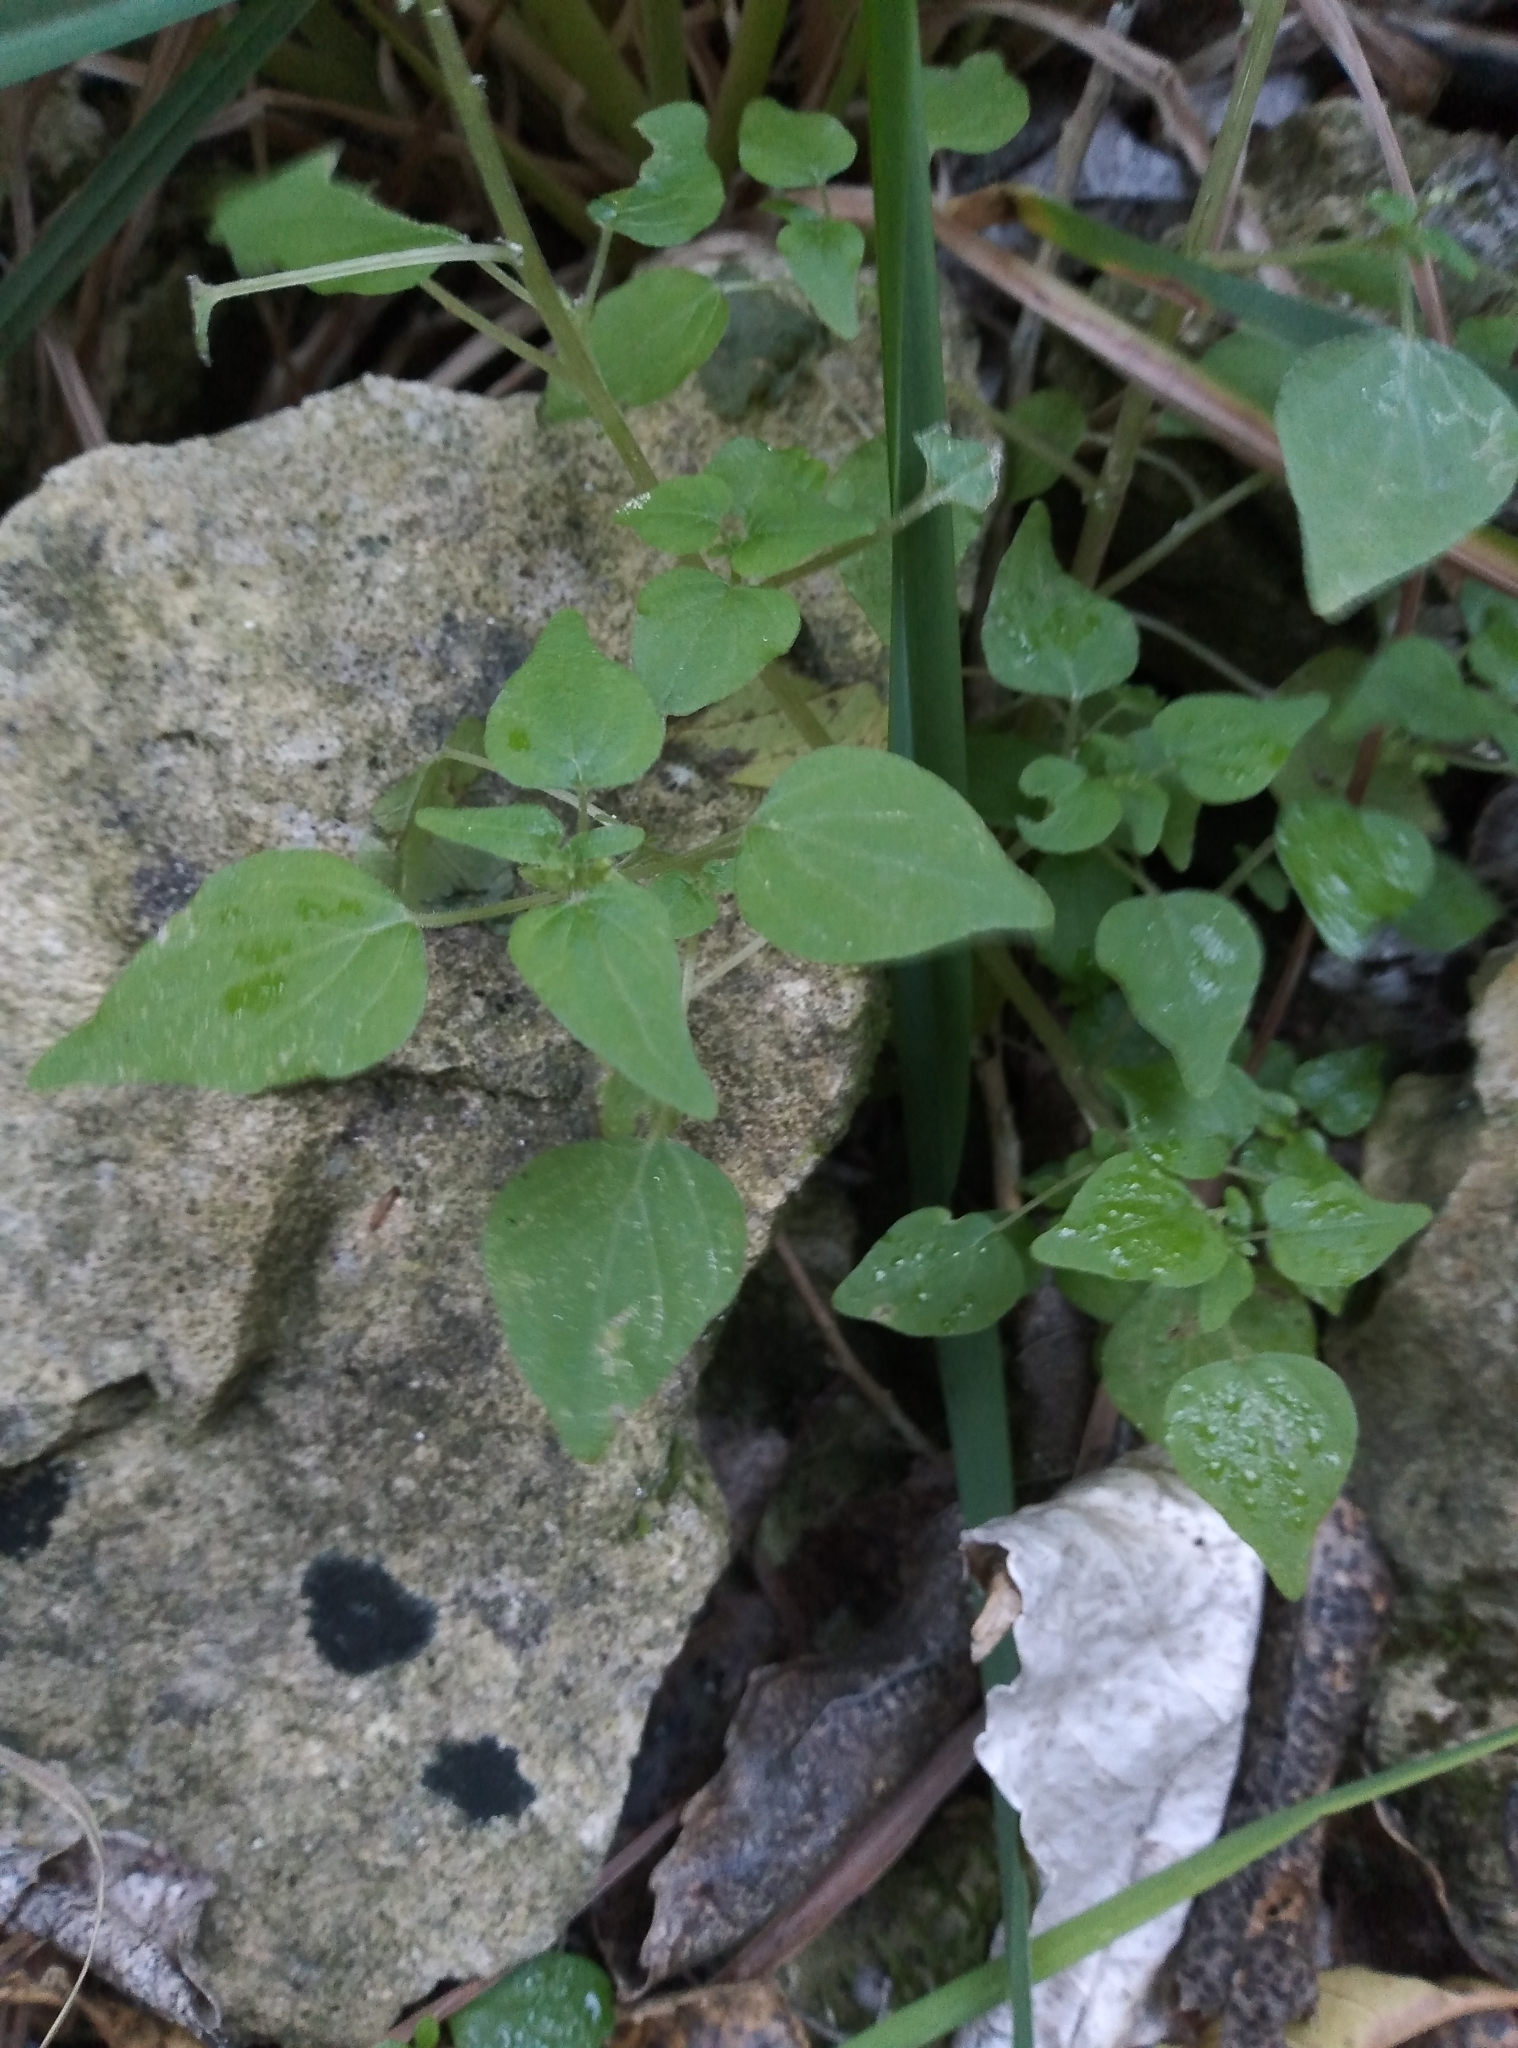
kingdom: Plantae
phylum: Tracheophyta
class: Magnoliopsida
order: Rosales
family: Urticaceae
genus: Parietaria
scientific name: Parietaria debilis
